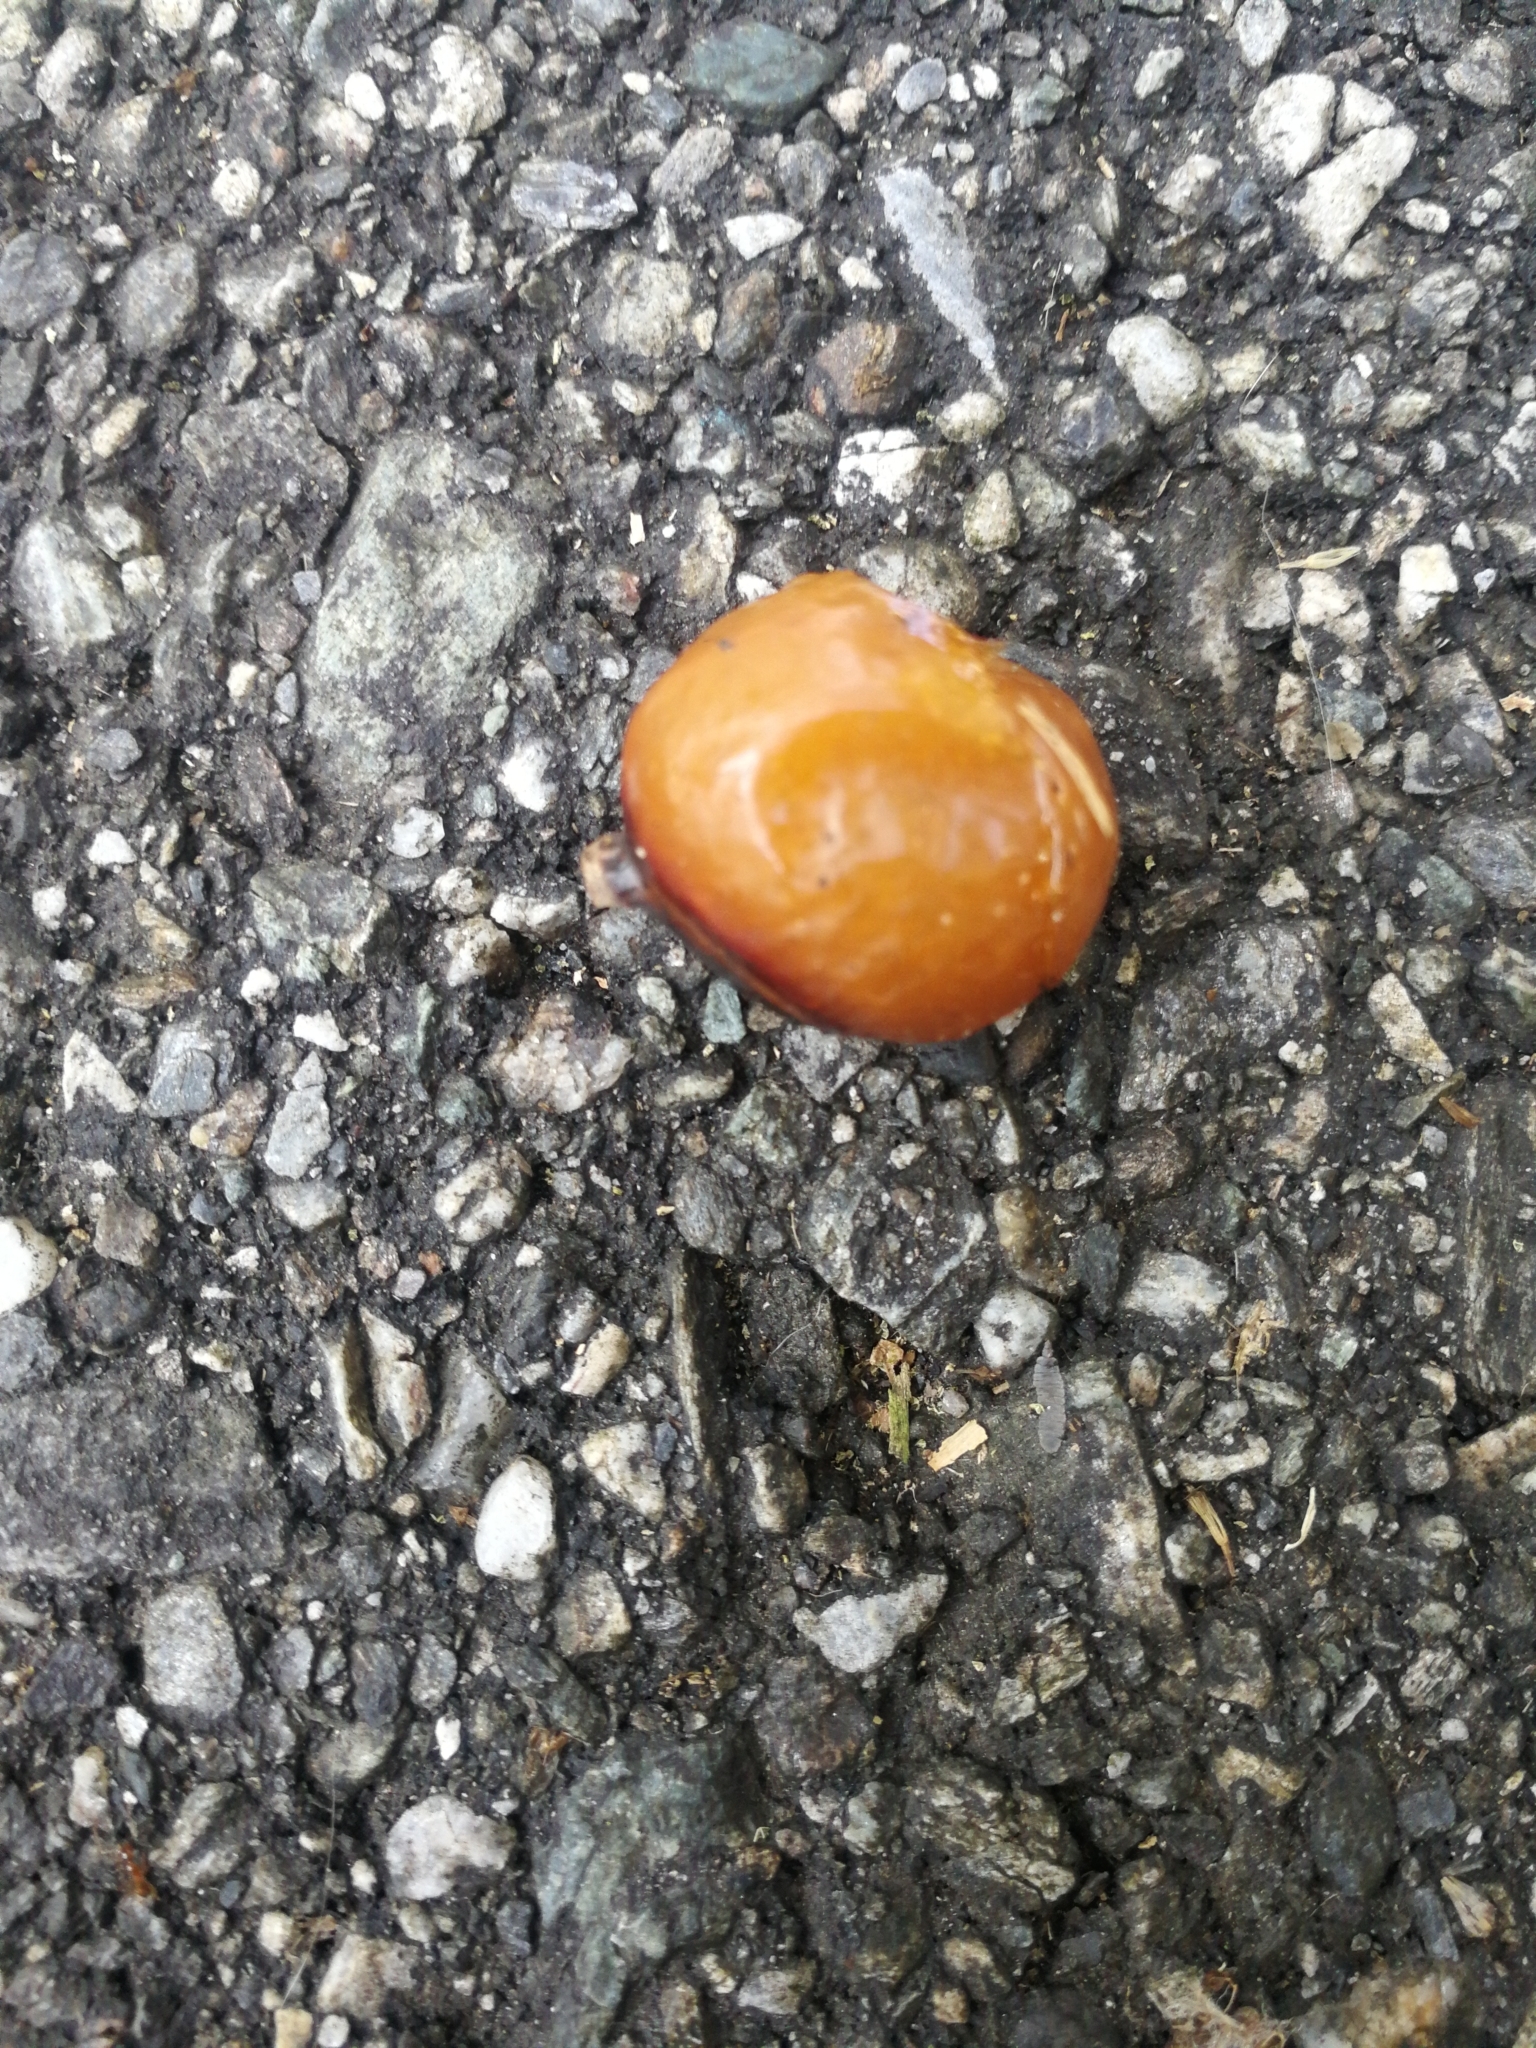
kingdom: Plantae
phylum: Tracheophyta
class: Magnoliopsida
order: Sapindales
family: Sapindaceae
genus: Sapindus
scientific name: Sapindus mukorossi
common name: Chinese soapberry
